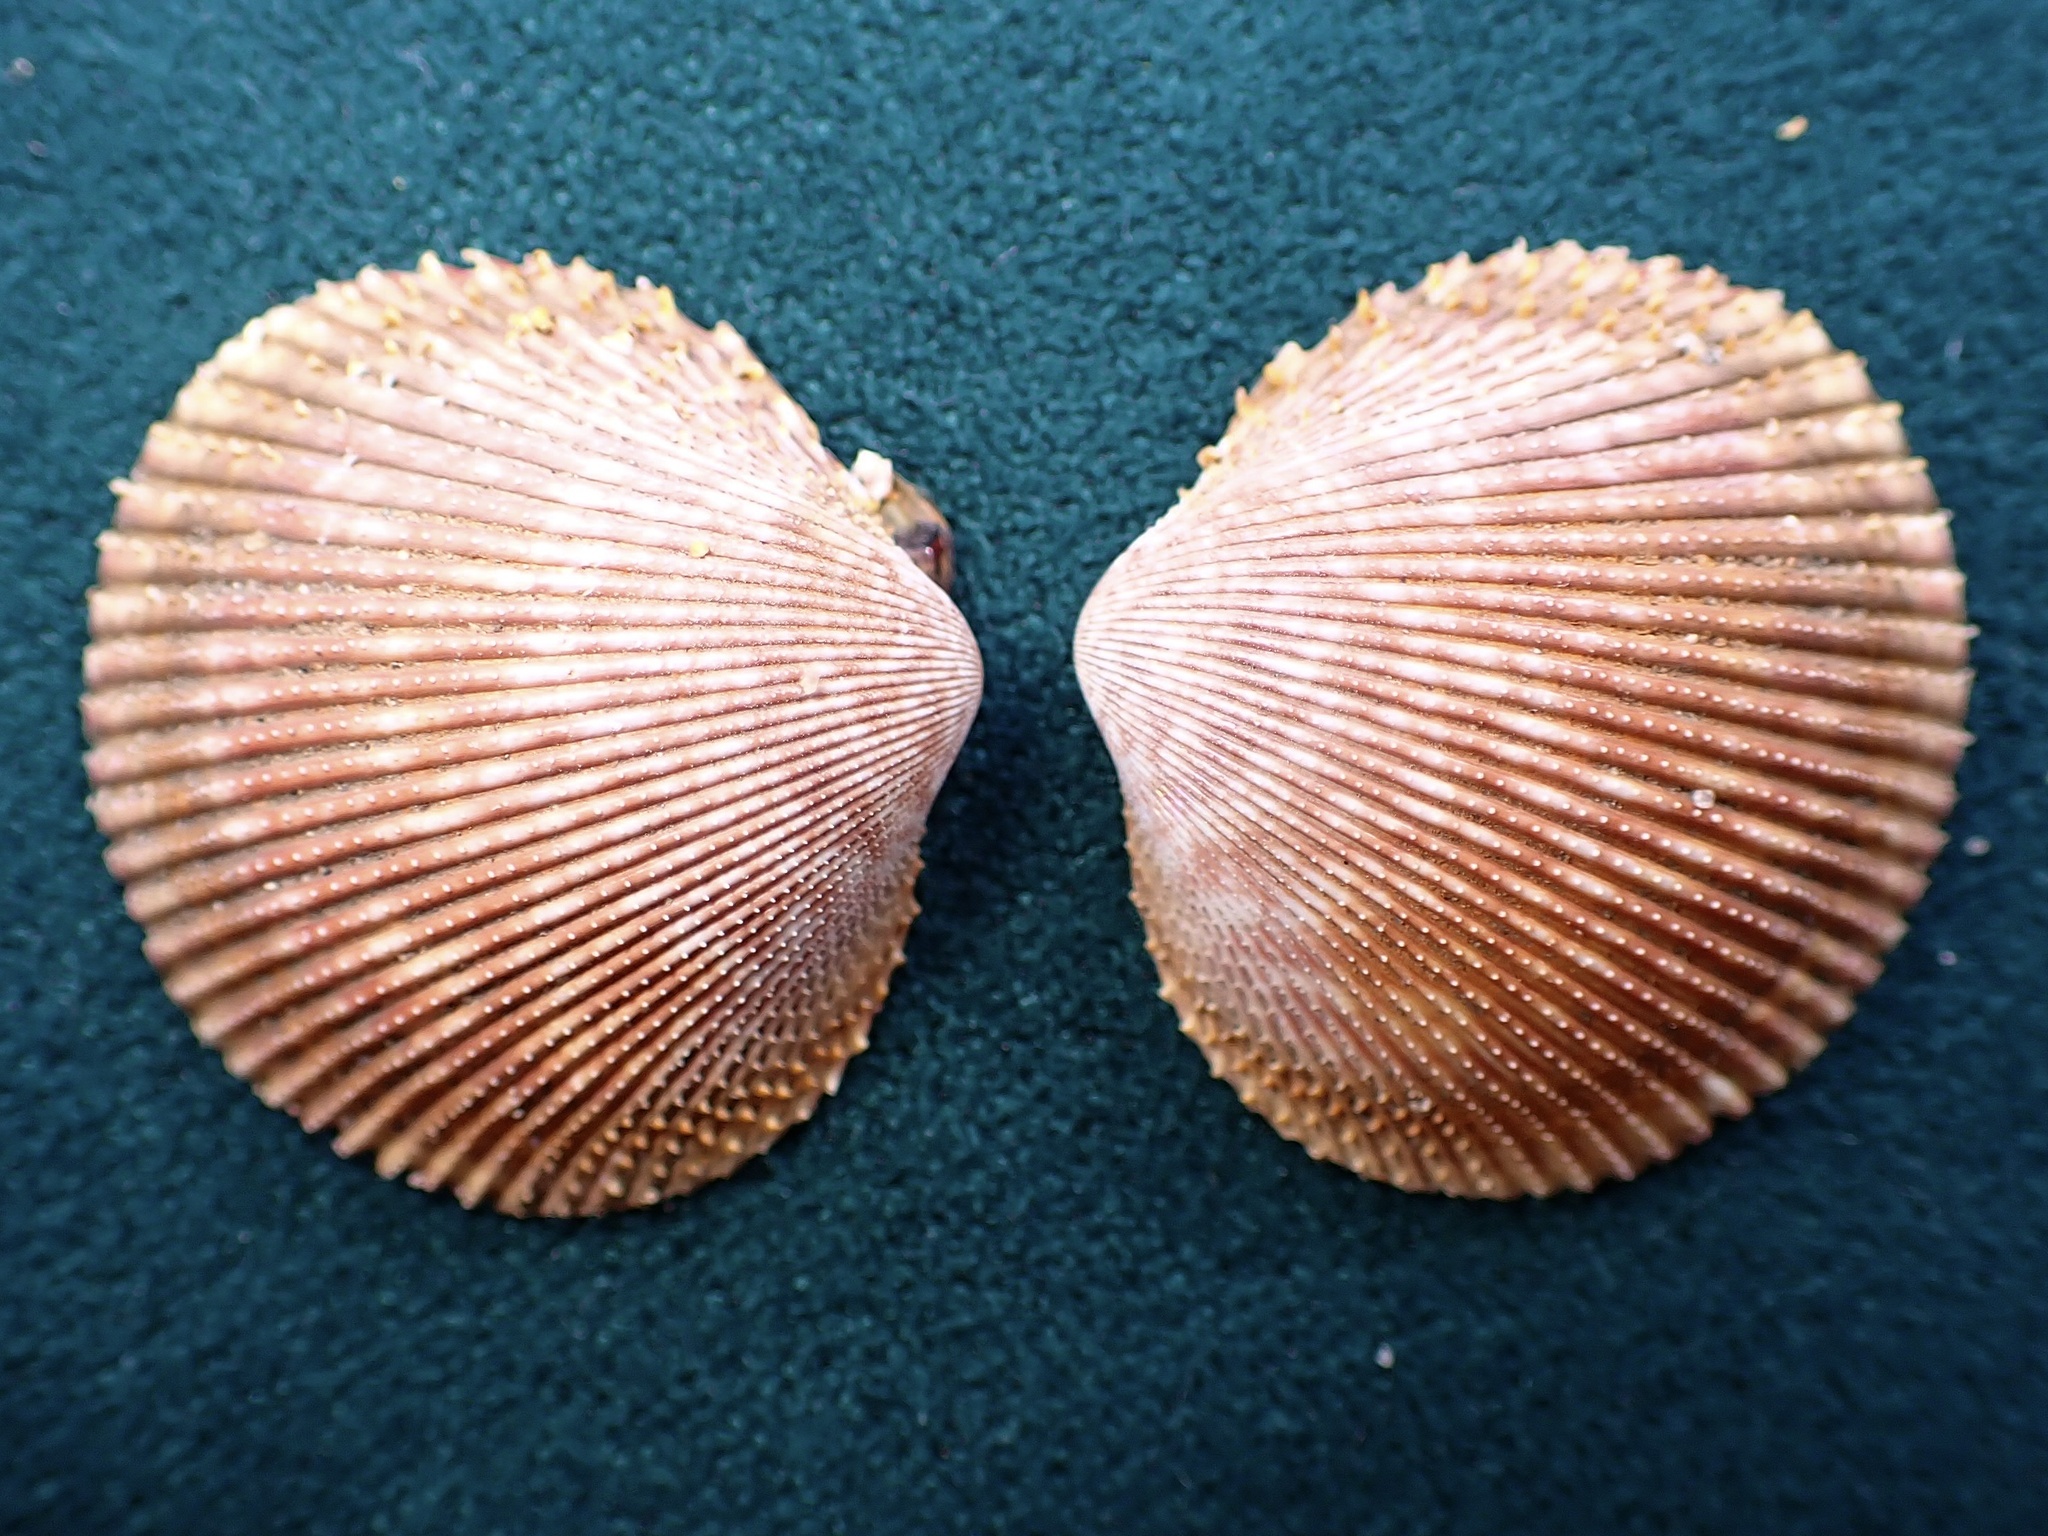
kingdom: Animalia
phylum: Mollusca
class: Bivalvia
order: Cardiida
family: Cardiidae
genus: Dallocardia
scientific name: Dallocardia quadragenaria
